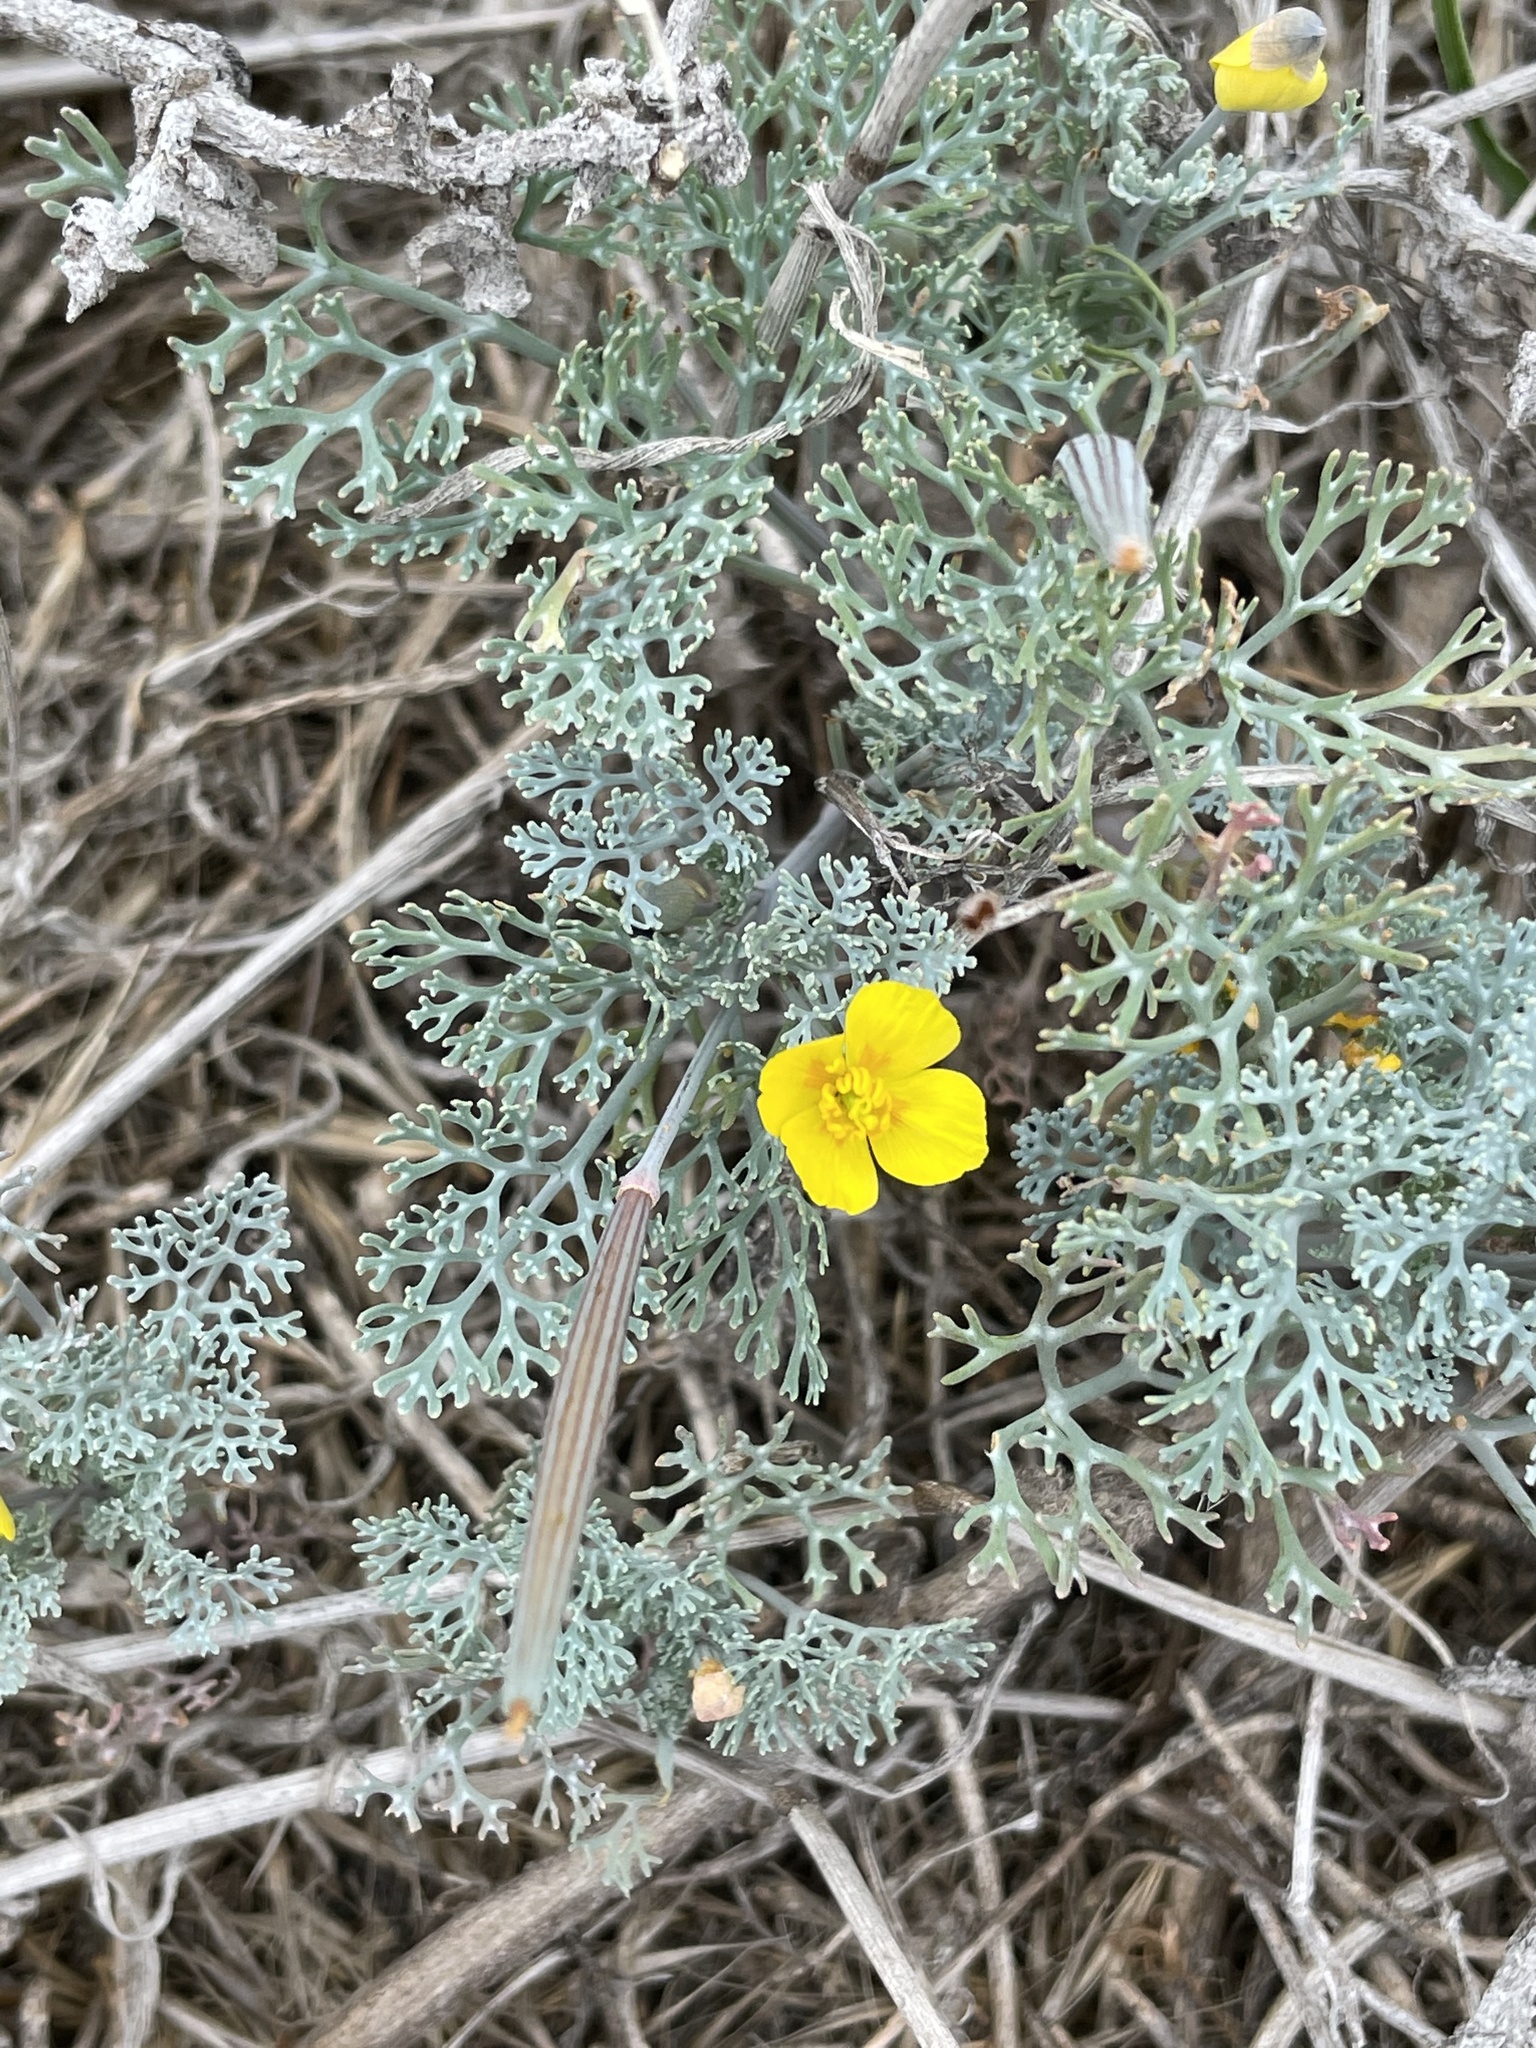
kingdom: Plantae
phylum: Tracheophyta
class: Magnoliopsida
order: Ranunculales
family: Papaveraceae
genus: Eschscholzia
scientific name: Eschscholzia ramosa
